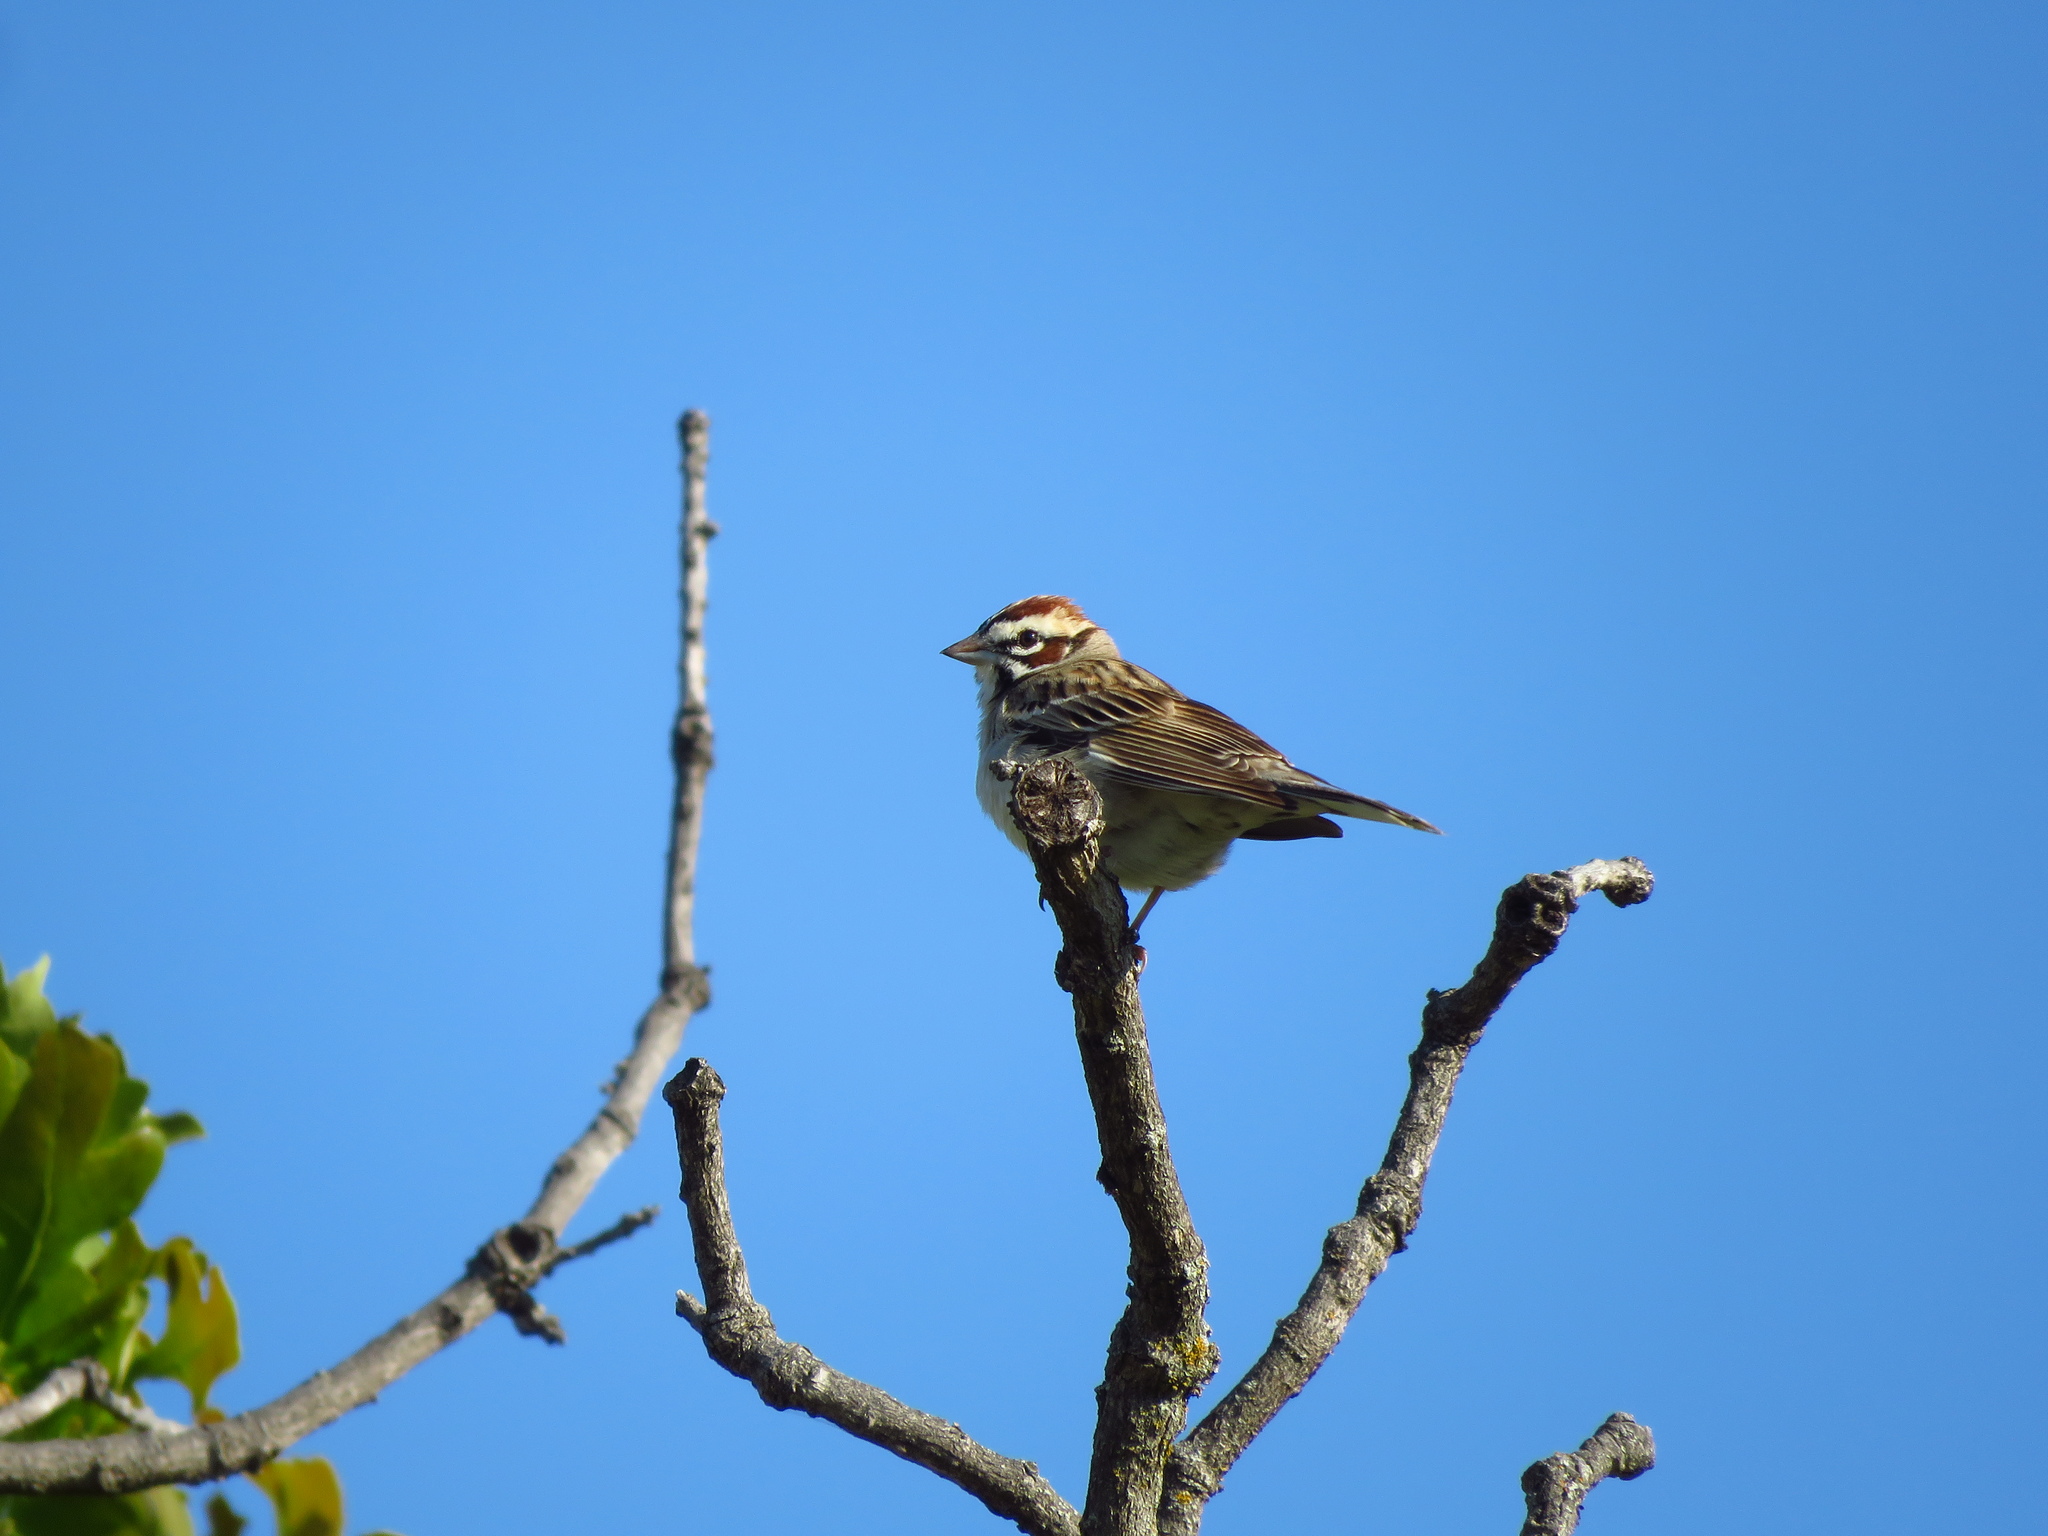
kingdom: Animalia
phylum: Chordata
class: Aves
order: Passeriformes
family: Passerellidae
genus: Chondestes
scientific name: Chondestes grammacus
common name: Lark sparrow
